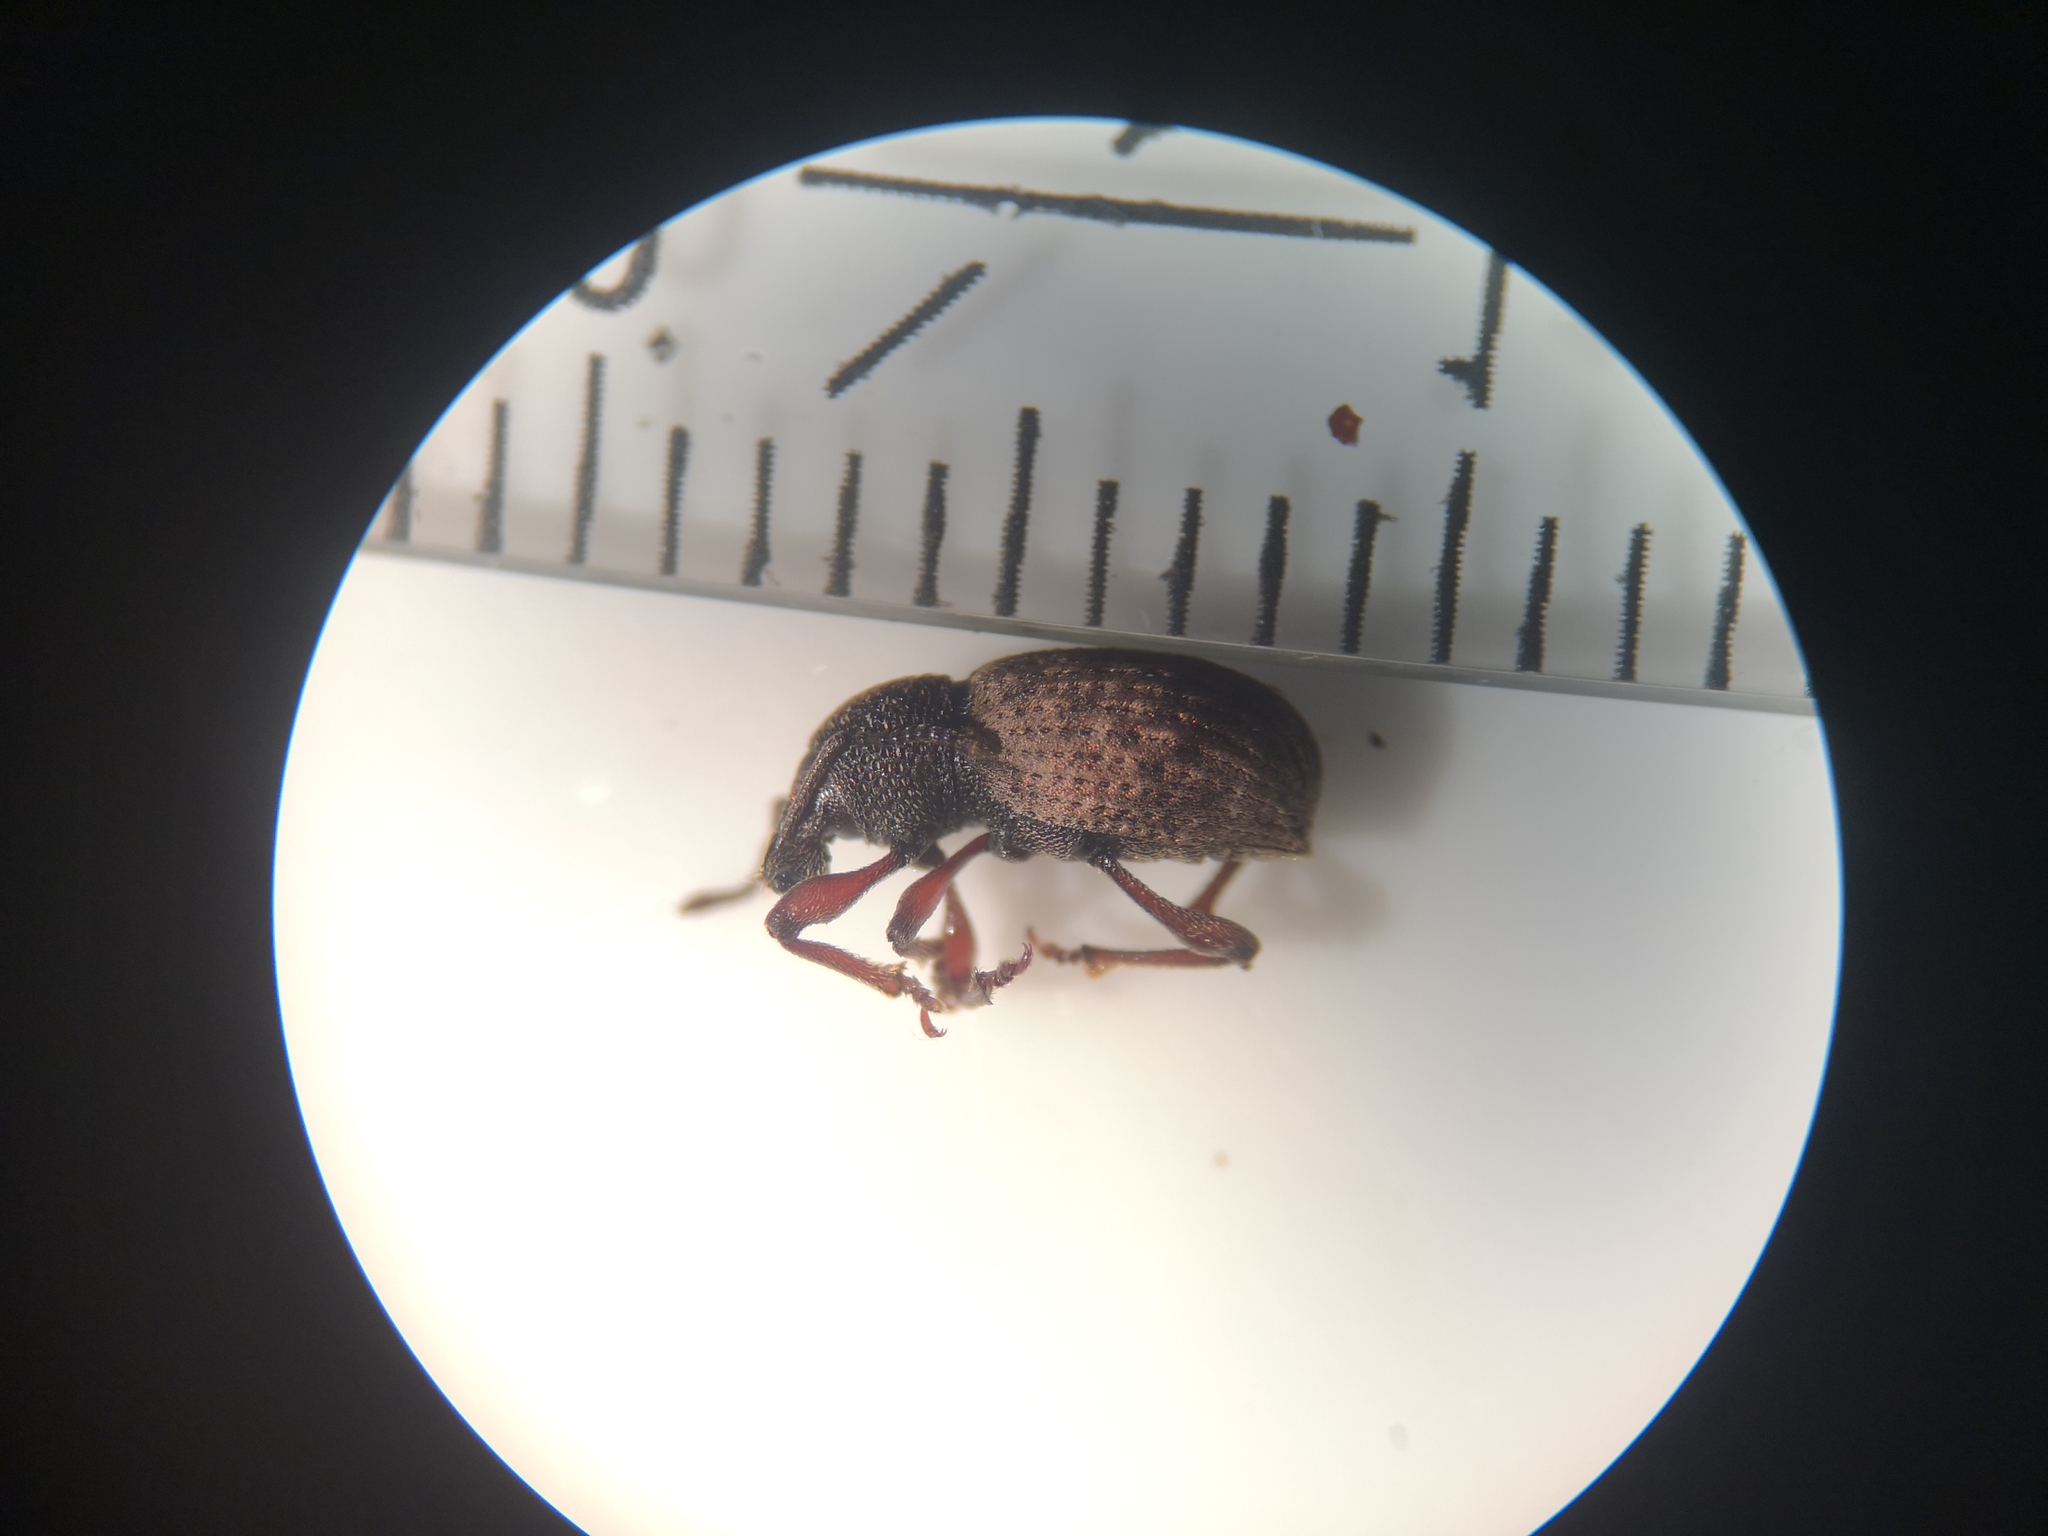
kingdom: Animalia
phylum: Arthropoda
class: Insecta
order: Coleoptera
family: Curculionidae
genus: Otiorhynchus
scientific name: Otiorhynchus raucus
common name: Weevil
